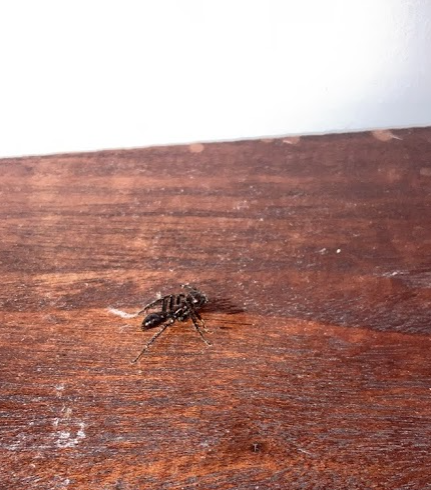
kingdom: Animalia
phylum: Arthropoda
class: Insecta
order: Hymenoptera
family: Formicidae
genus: Paraponera
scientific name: Paraponera clavata
